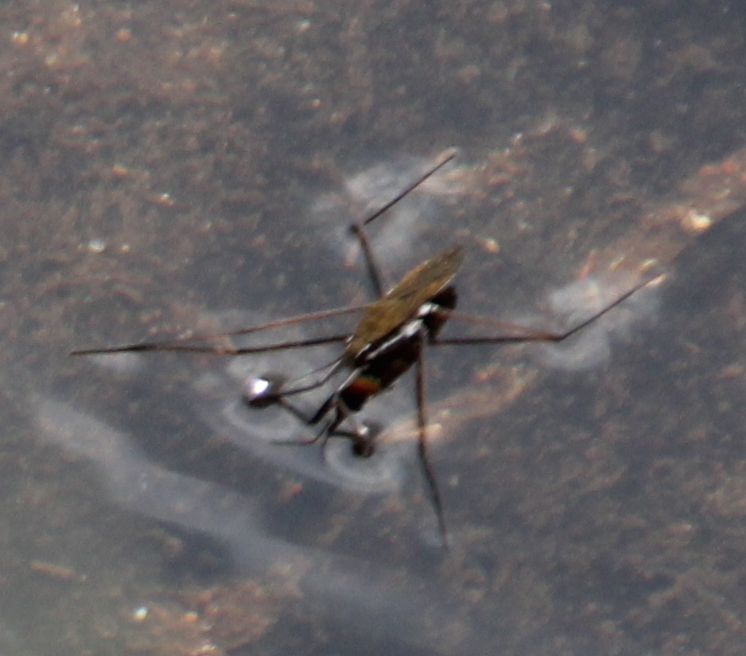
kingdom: Animalia
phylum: Arthropoda
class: Insecta
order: Hemiptera
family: Gerridae
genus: Aquarius
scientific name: Aquarius remigis
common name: Common water strider
